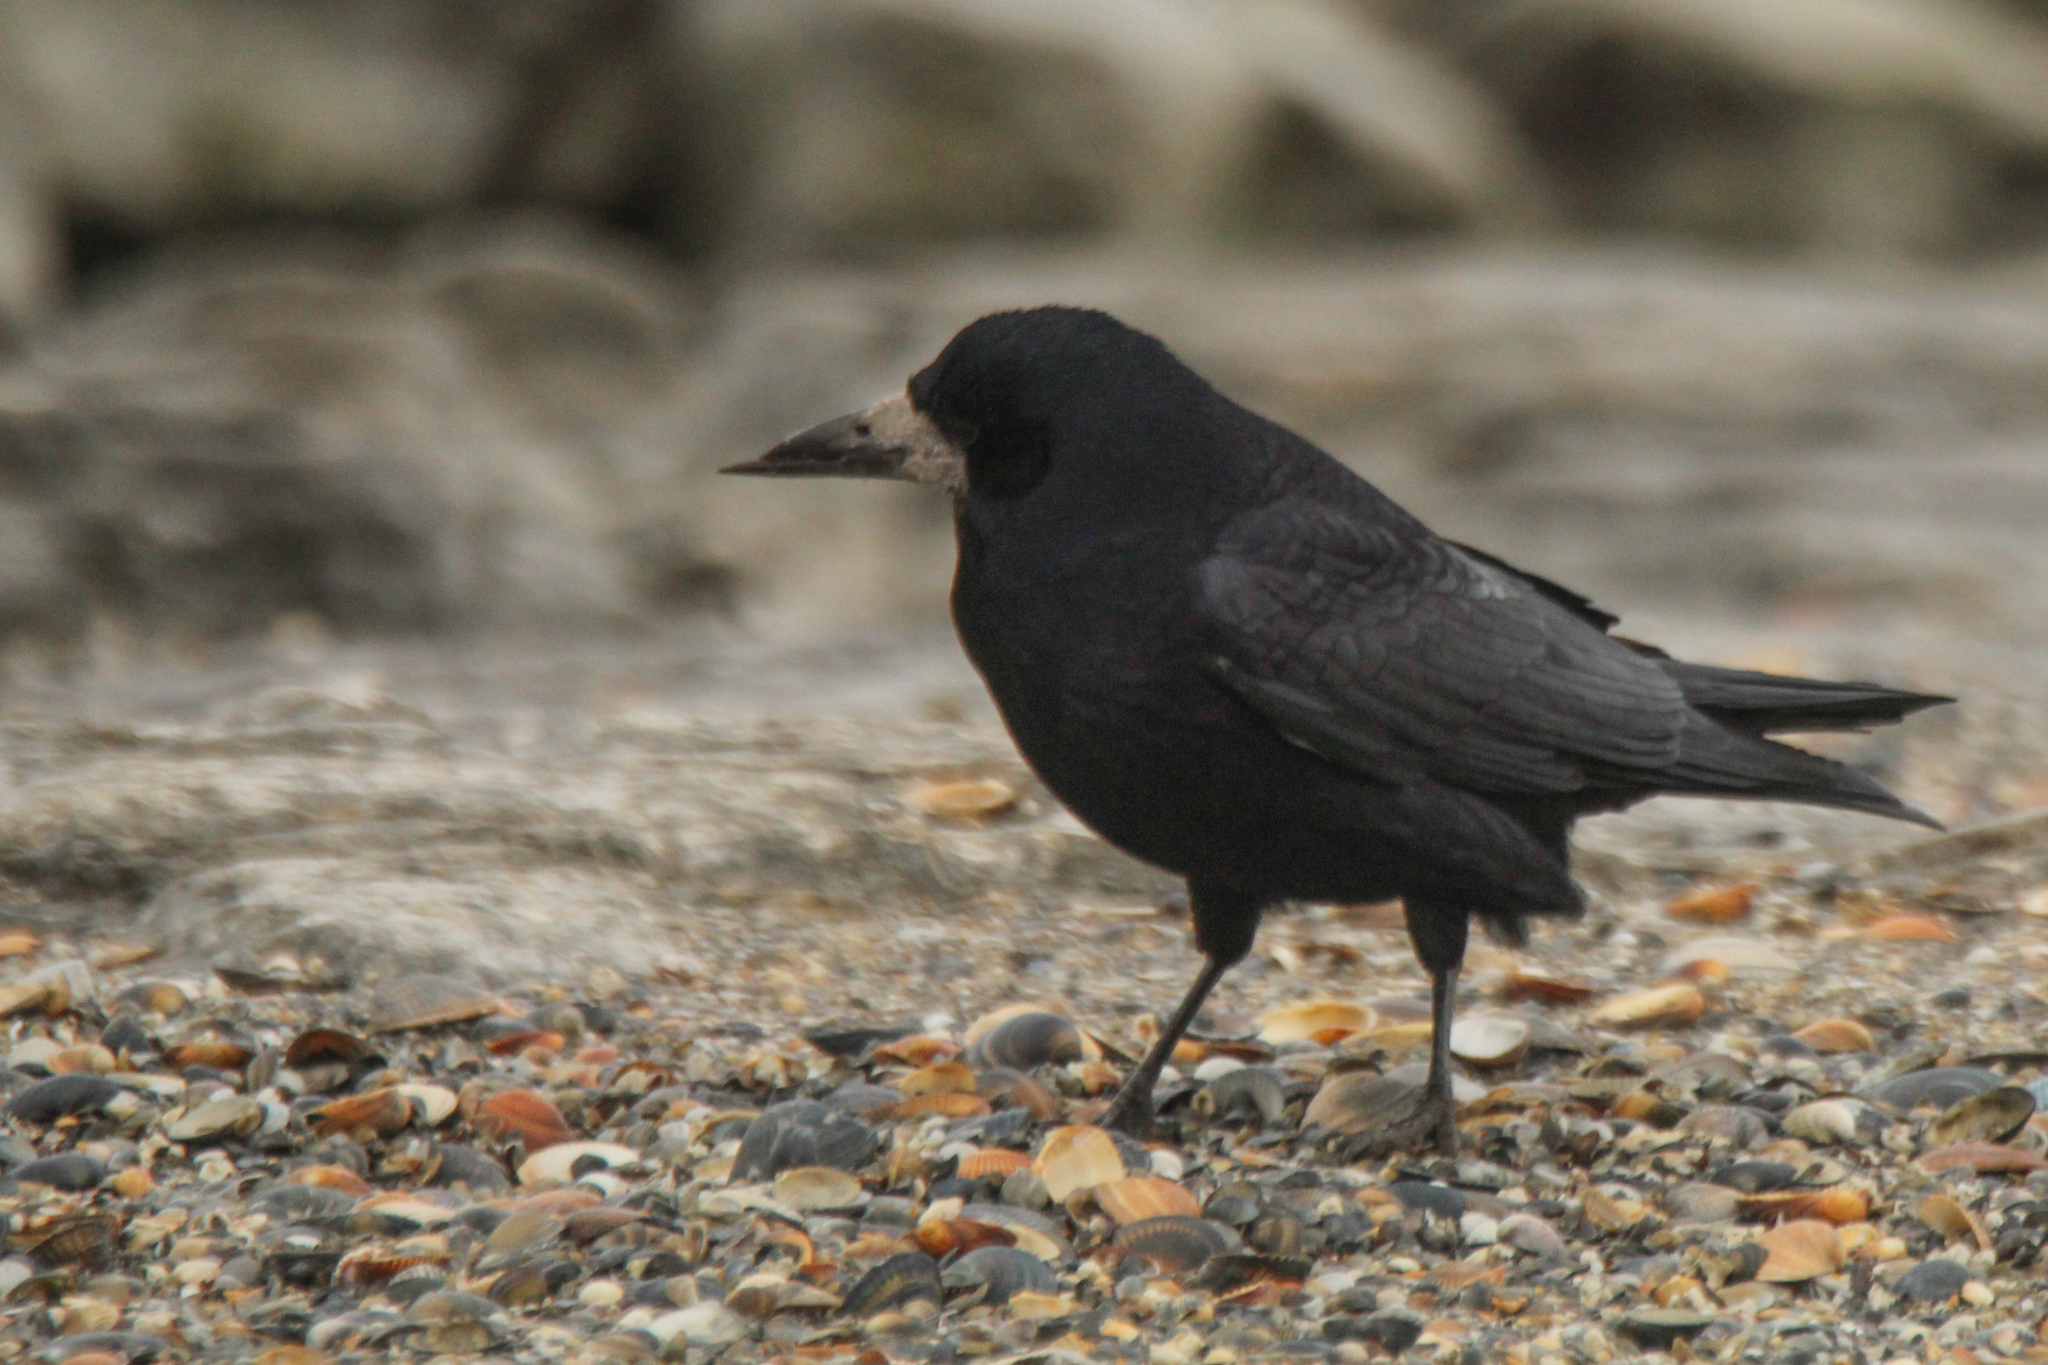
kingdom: Animalia
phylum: Chordata
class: Aves
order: Passeriformes
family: Corvidae
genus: Corvus
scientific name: Corvus frugilegus
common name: Rook
